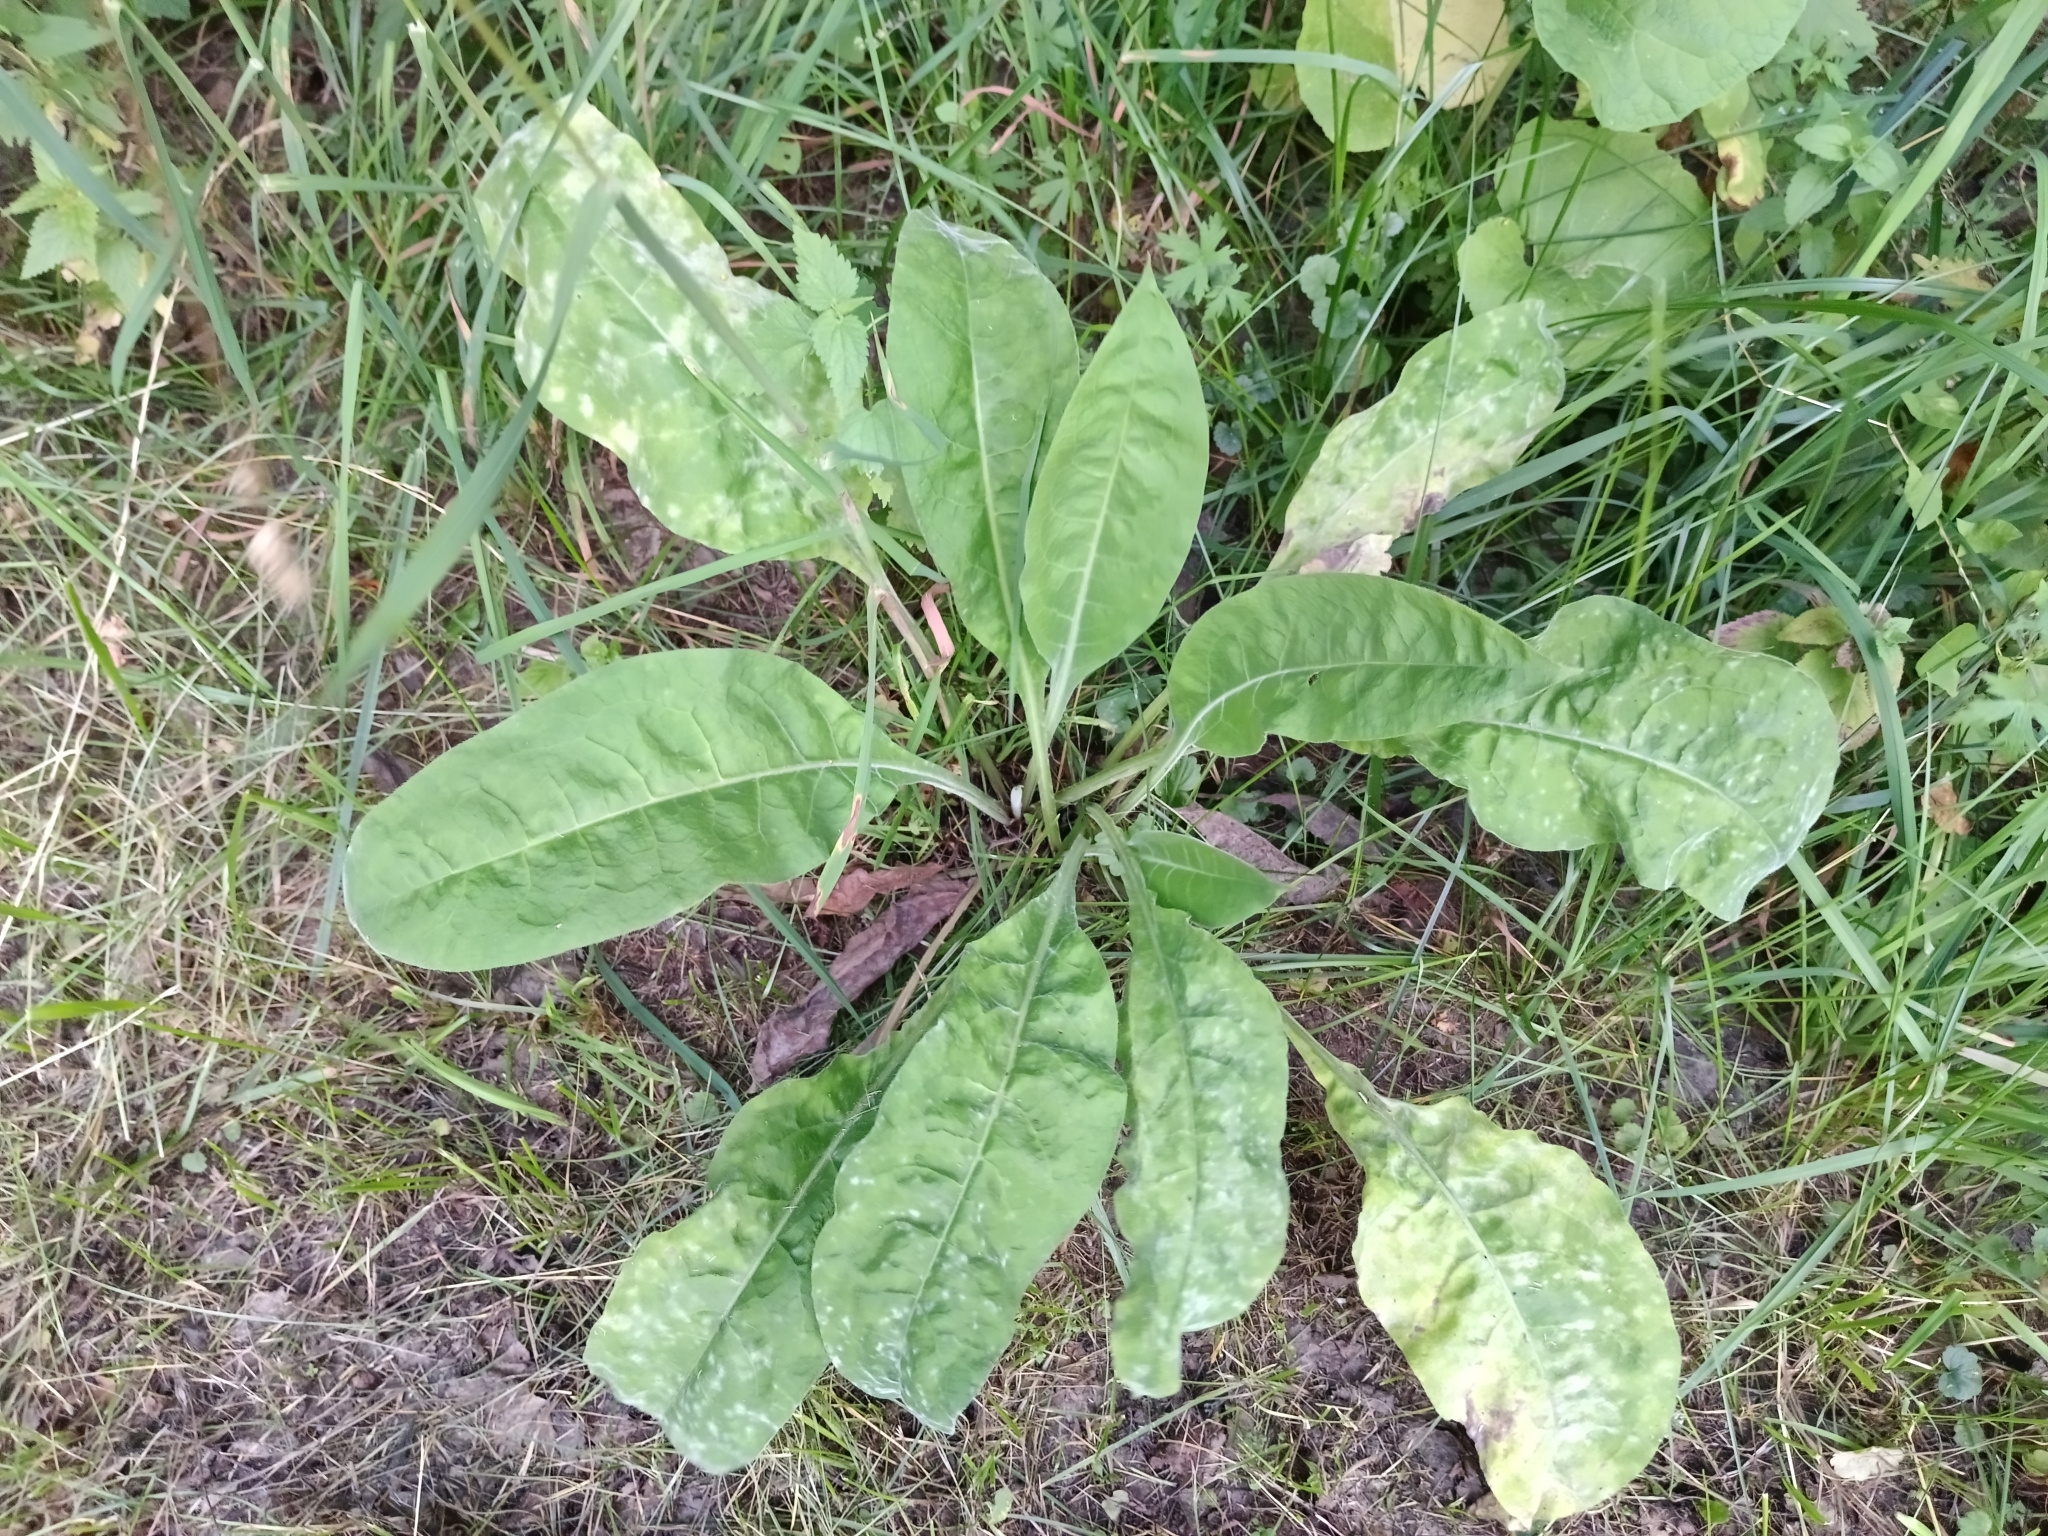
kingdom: Plantae
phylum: Tracheophyta
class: Magnoliopsida
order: Boraginales
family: Boraginaceae
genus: Pulmonaria
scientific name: Pulmonaria mollis
